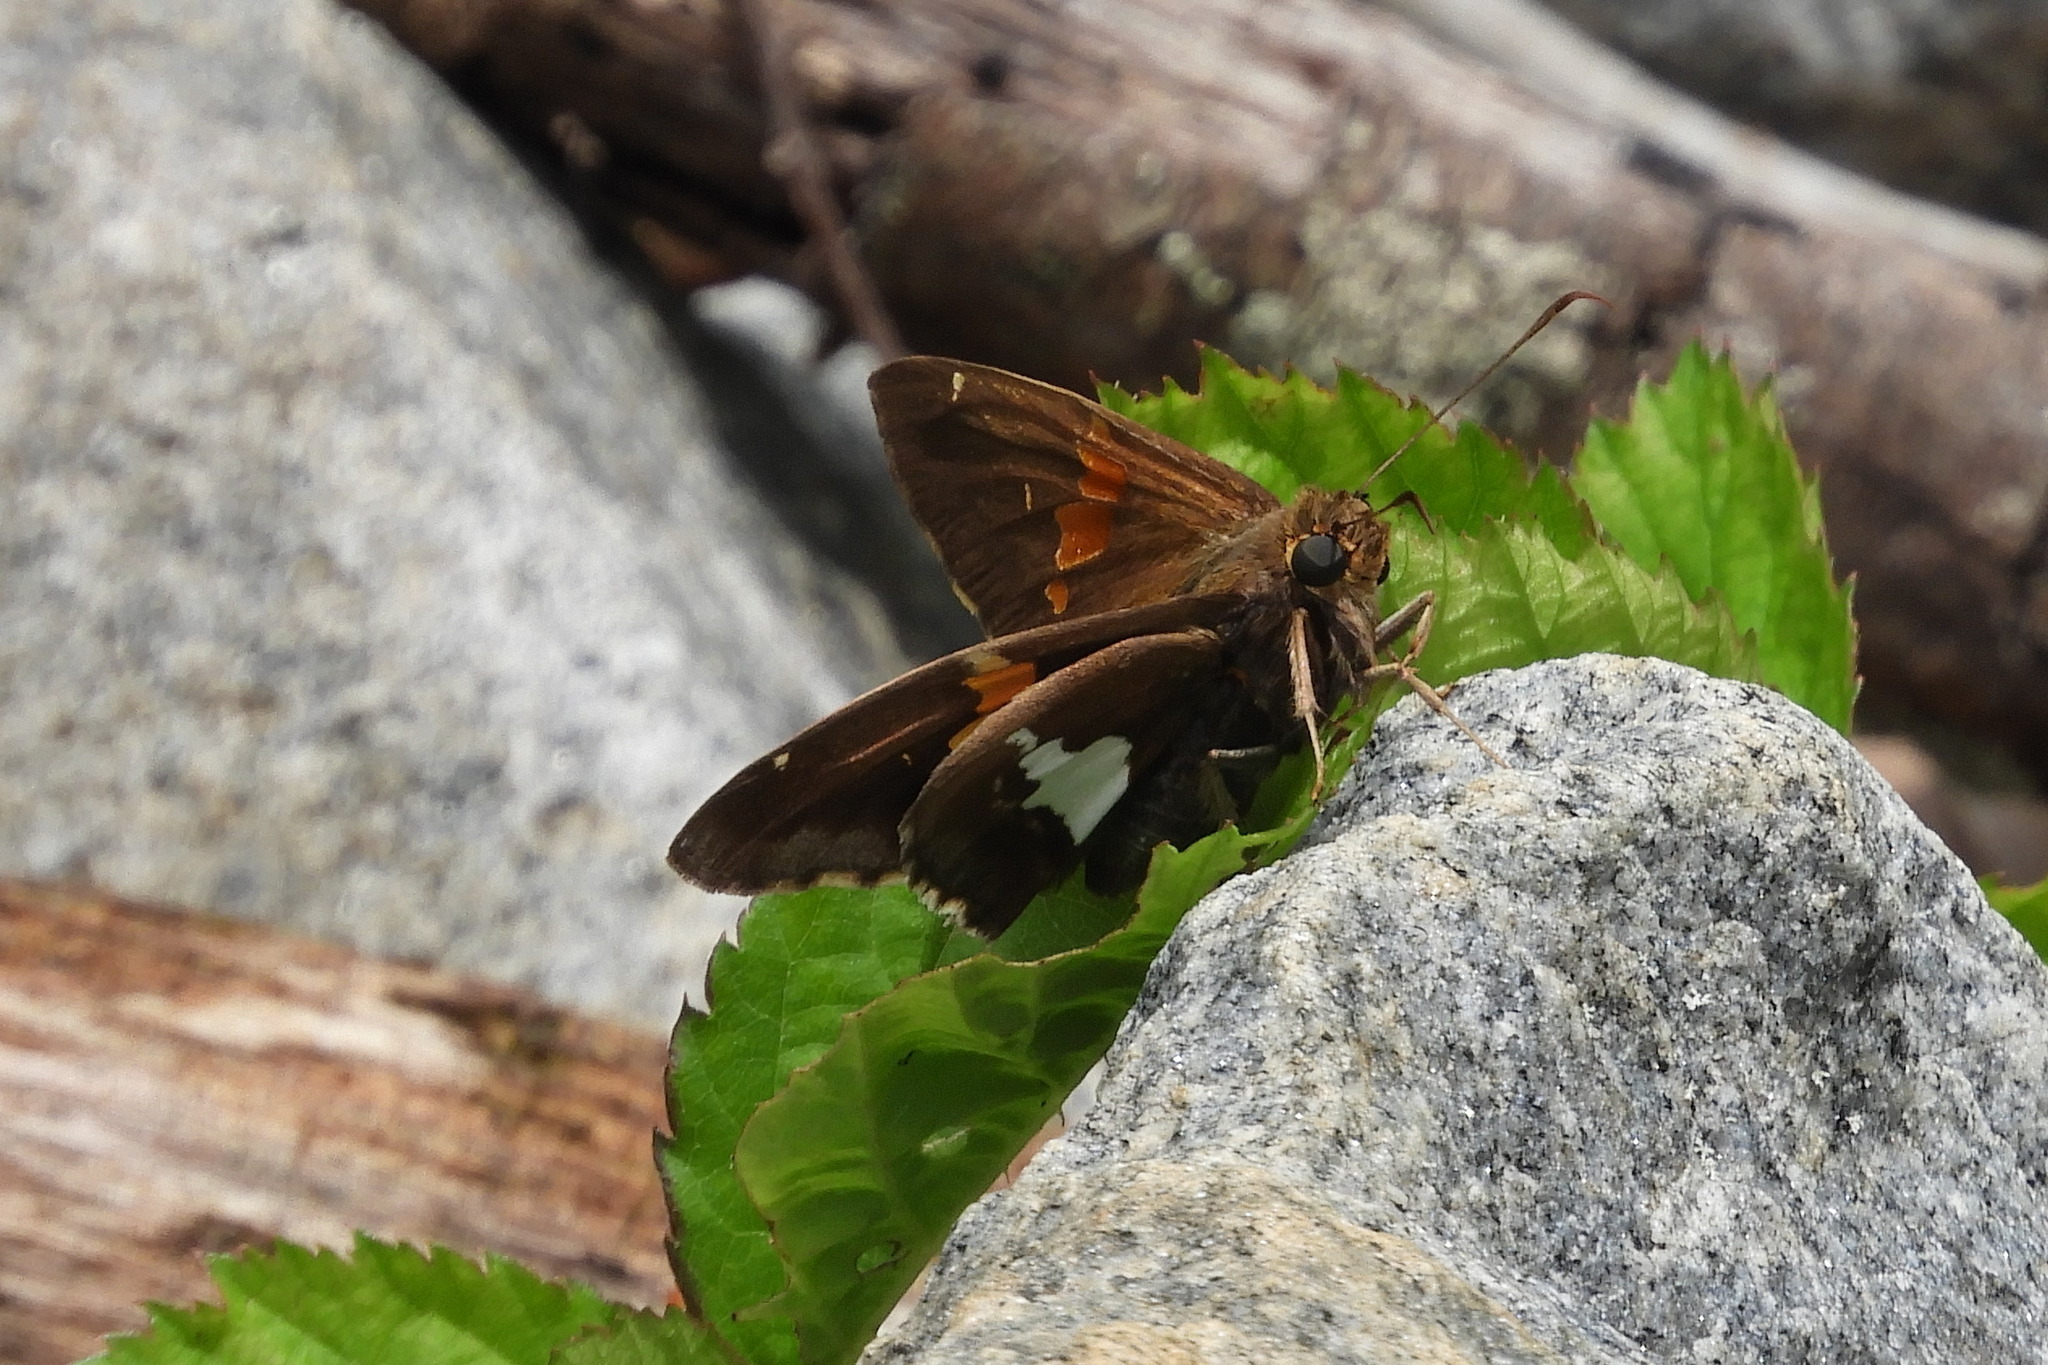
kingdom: Animalia
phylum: Arthropoda
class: Insecta
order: Lepidoptera
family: Hesperiidae
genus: Epargyreus
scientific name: Epargyreus clarus
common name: Silver-spotted skipper
